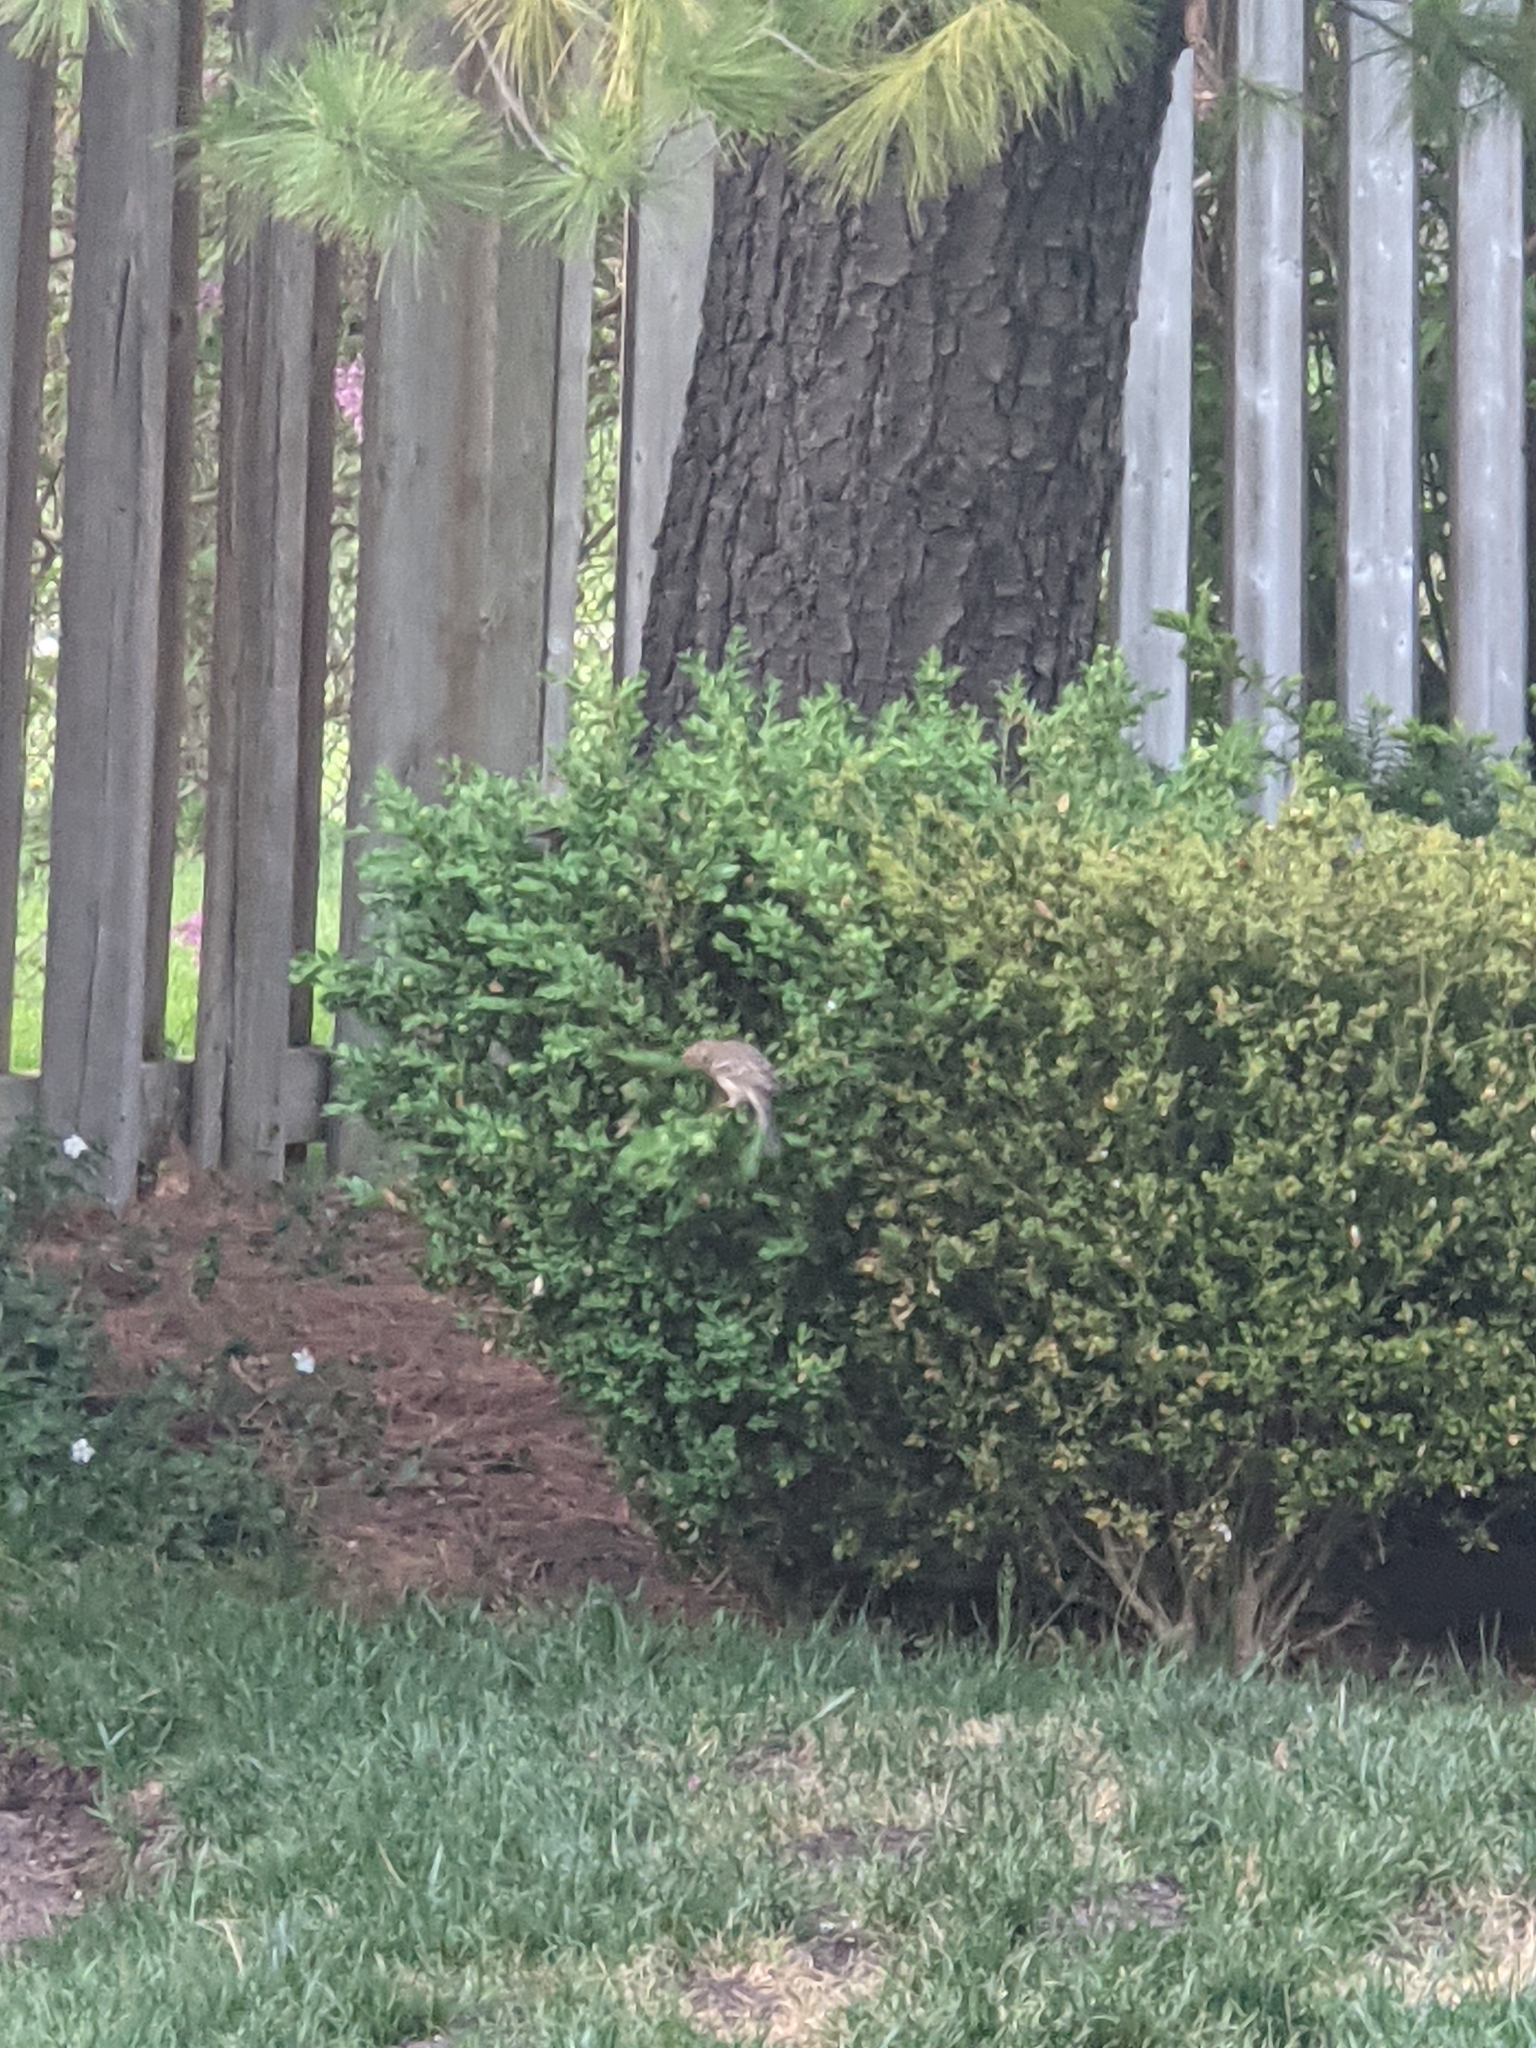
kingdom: Animalia
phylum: Chordata
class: Aves
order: Passeriformes
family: Fringillidae
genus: Haemorhous
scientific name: Haemorhous mexicanus
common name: House finch
